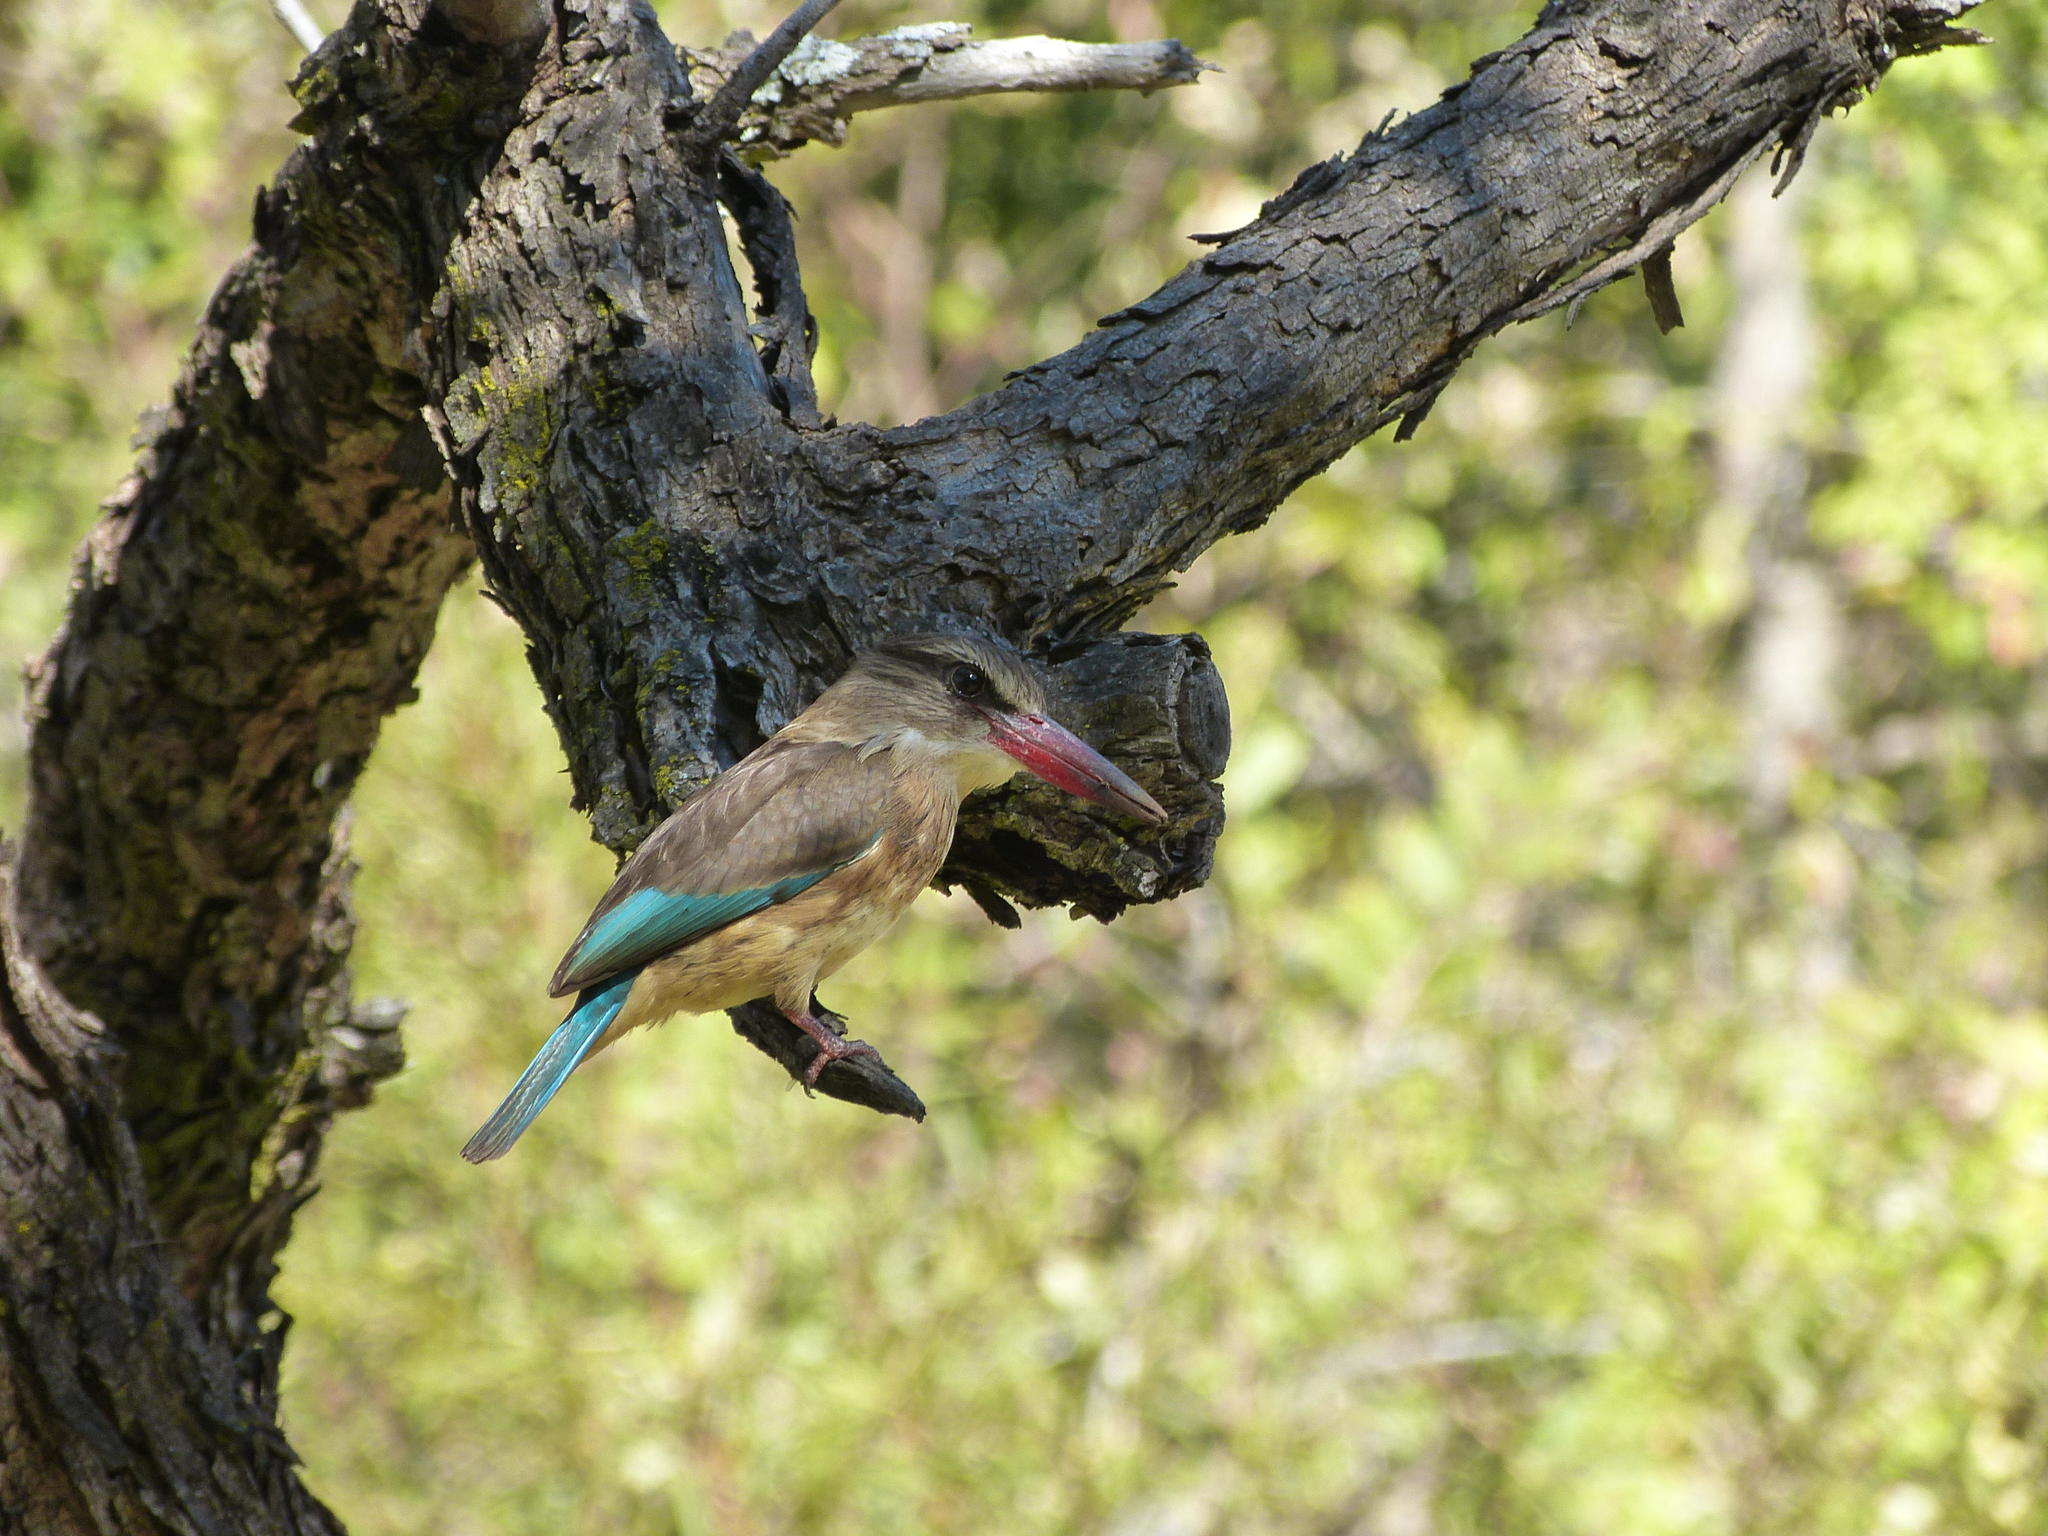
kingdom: Animalia
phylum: Chordata
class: Aves
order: Coraciiformes
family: Alcedinidae
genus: Halcyon
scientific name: Halcyon albiventris
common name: Brown-hooded kingfisher
